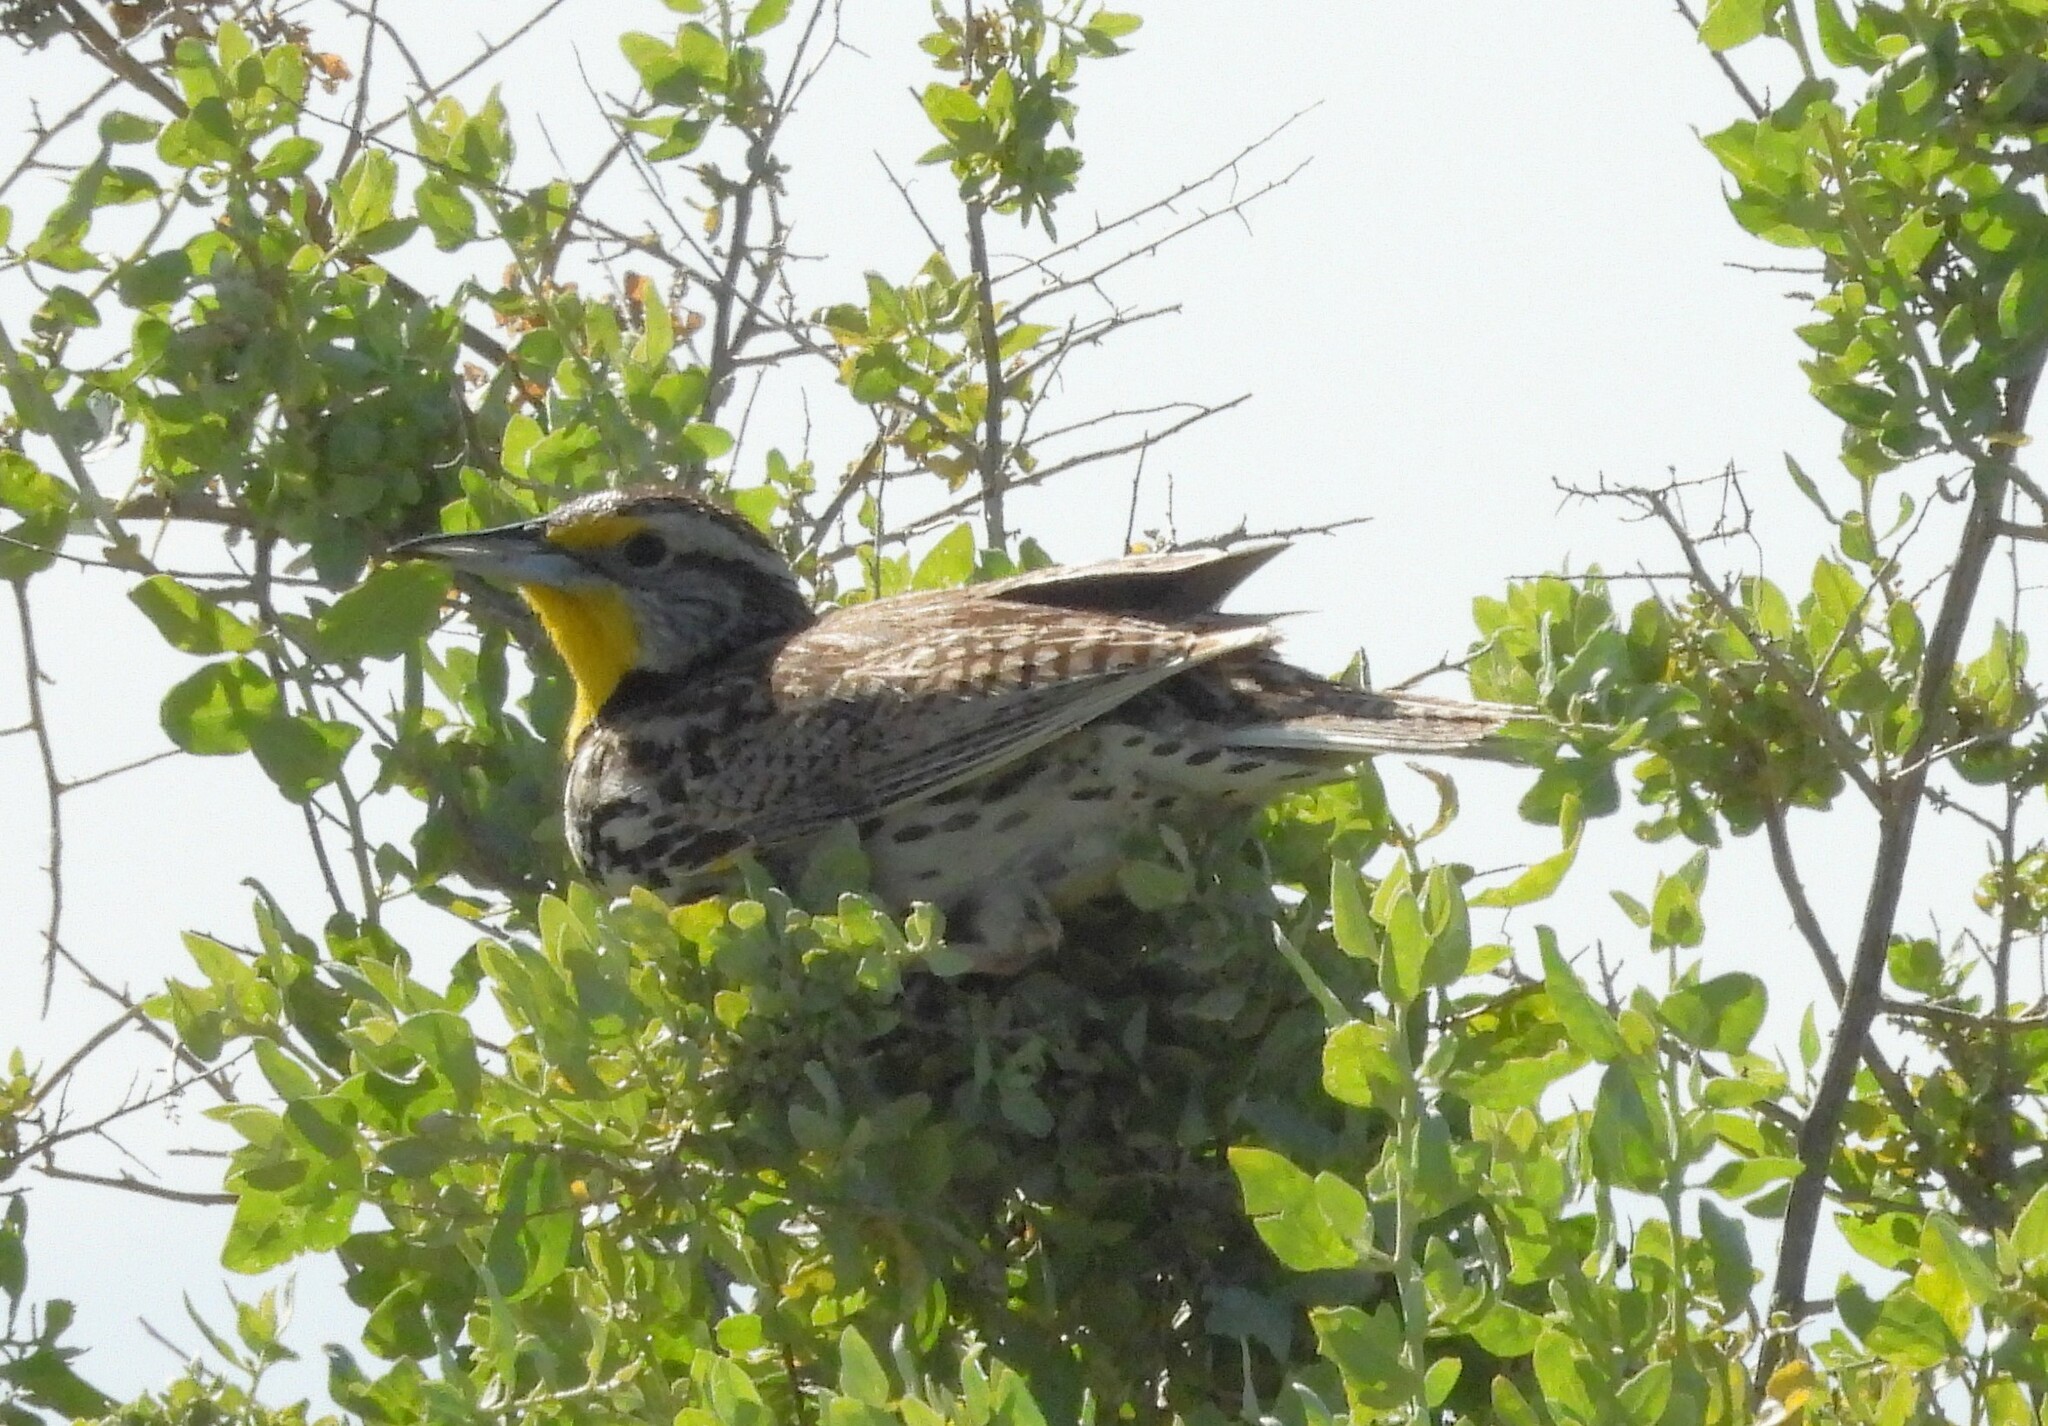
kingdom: Animalia
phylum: Chordata
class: Aves
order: Passeriformes
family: Icteridae
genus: Sturnella
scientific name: Sturnella neglecta
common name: Western meadowlark
